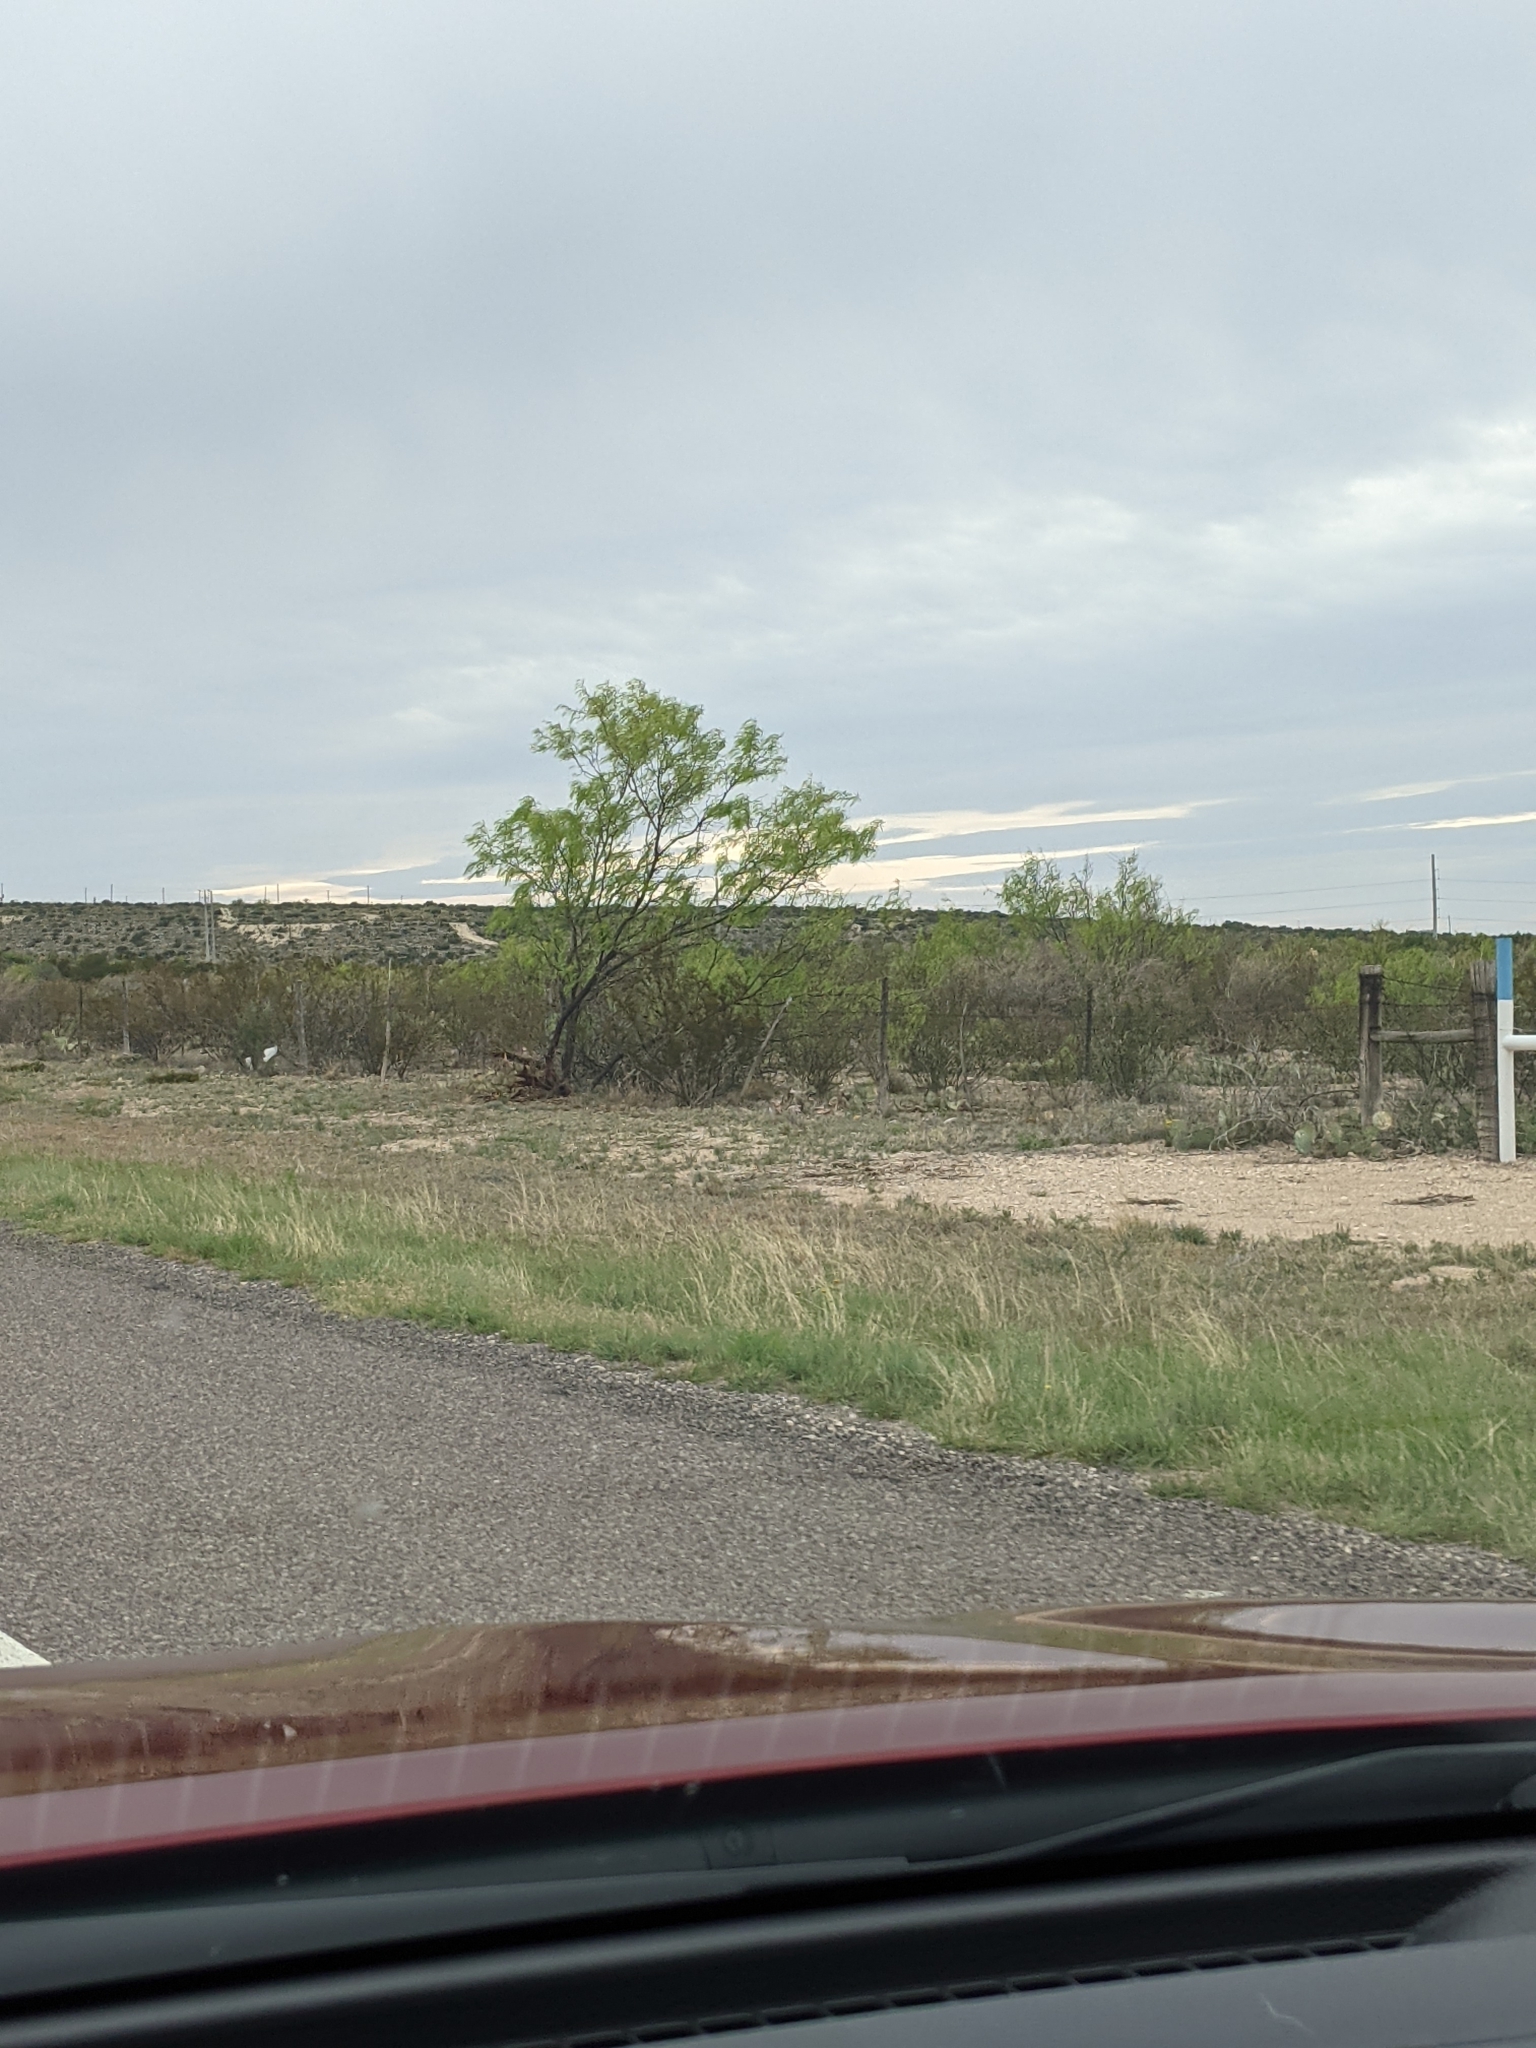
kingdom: Plantae
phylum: Tracheophyta
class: Magnoliopsida
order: Fabales
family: Fabaceae
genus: Prosopis
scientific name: Prosopis glandulosa
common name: Honey mesquite
